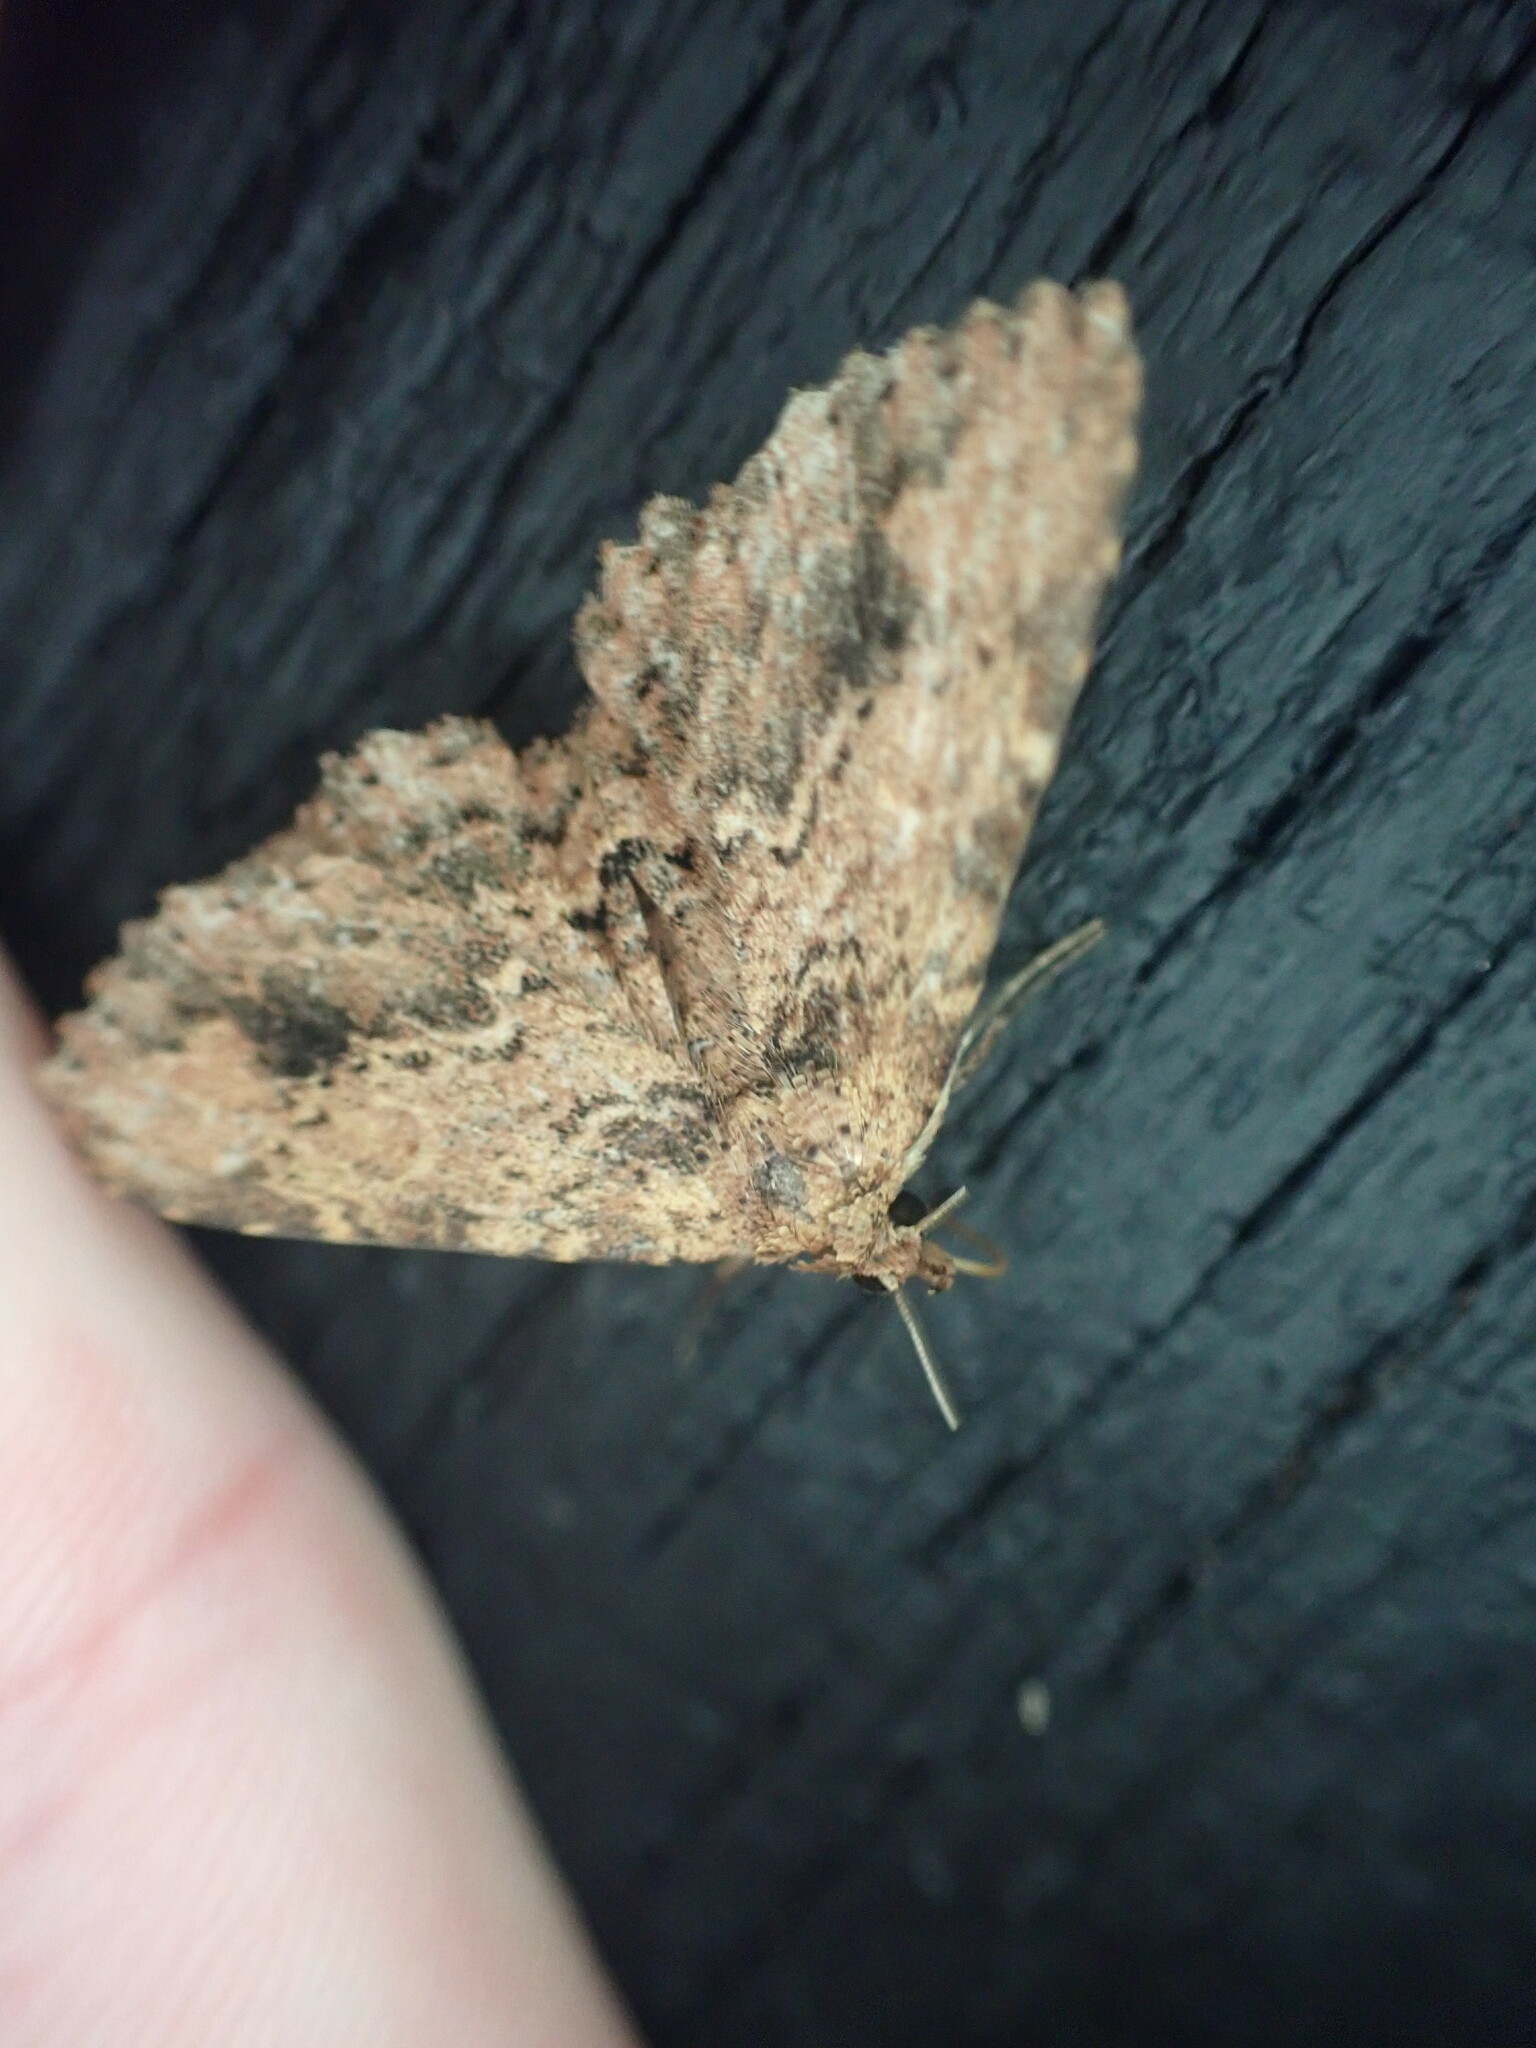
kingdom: Animalia
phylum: Arthropoda
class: Insecta
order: Lepidoptera
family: Erebidae
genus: Artigisa
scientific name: Artigisa melanephele
